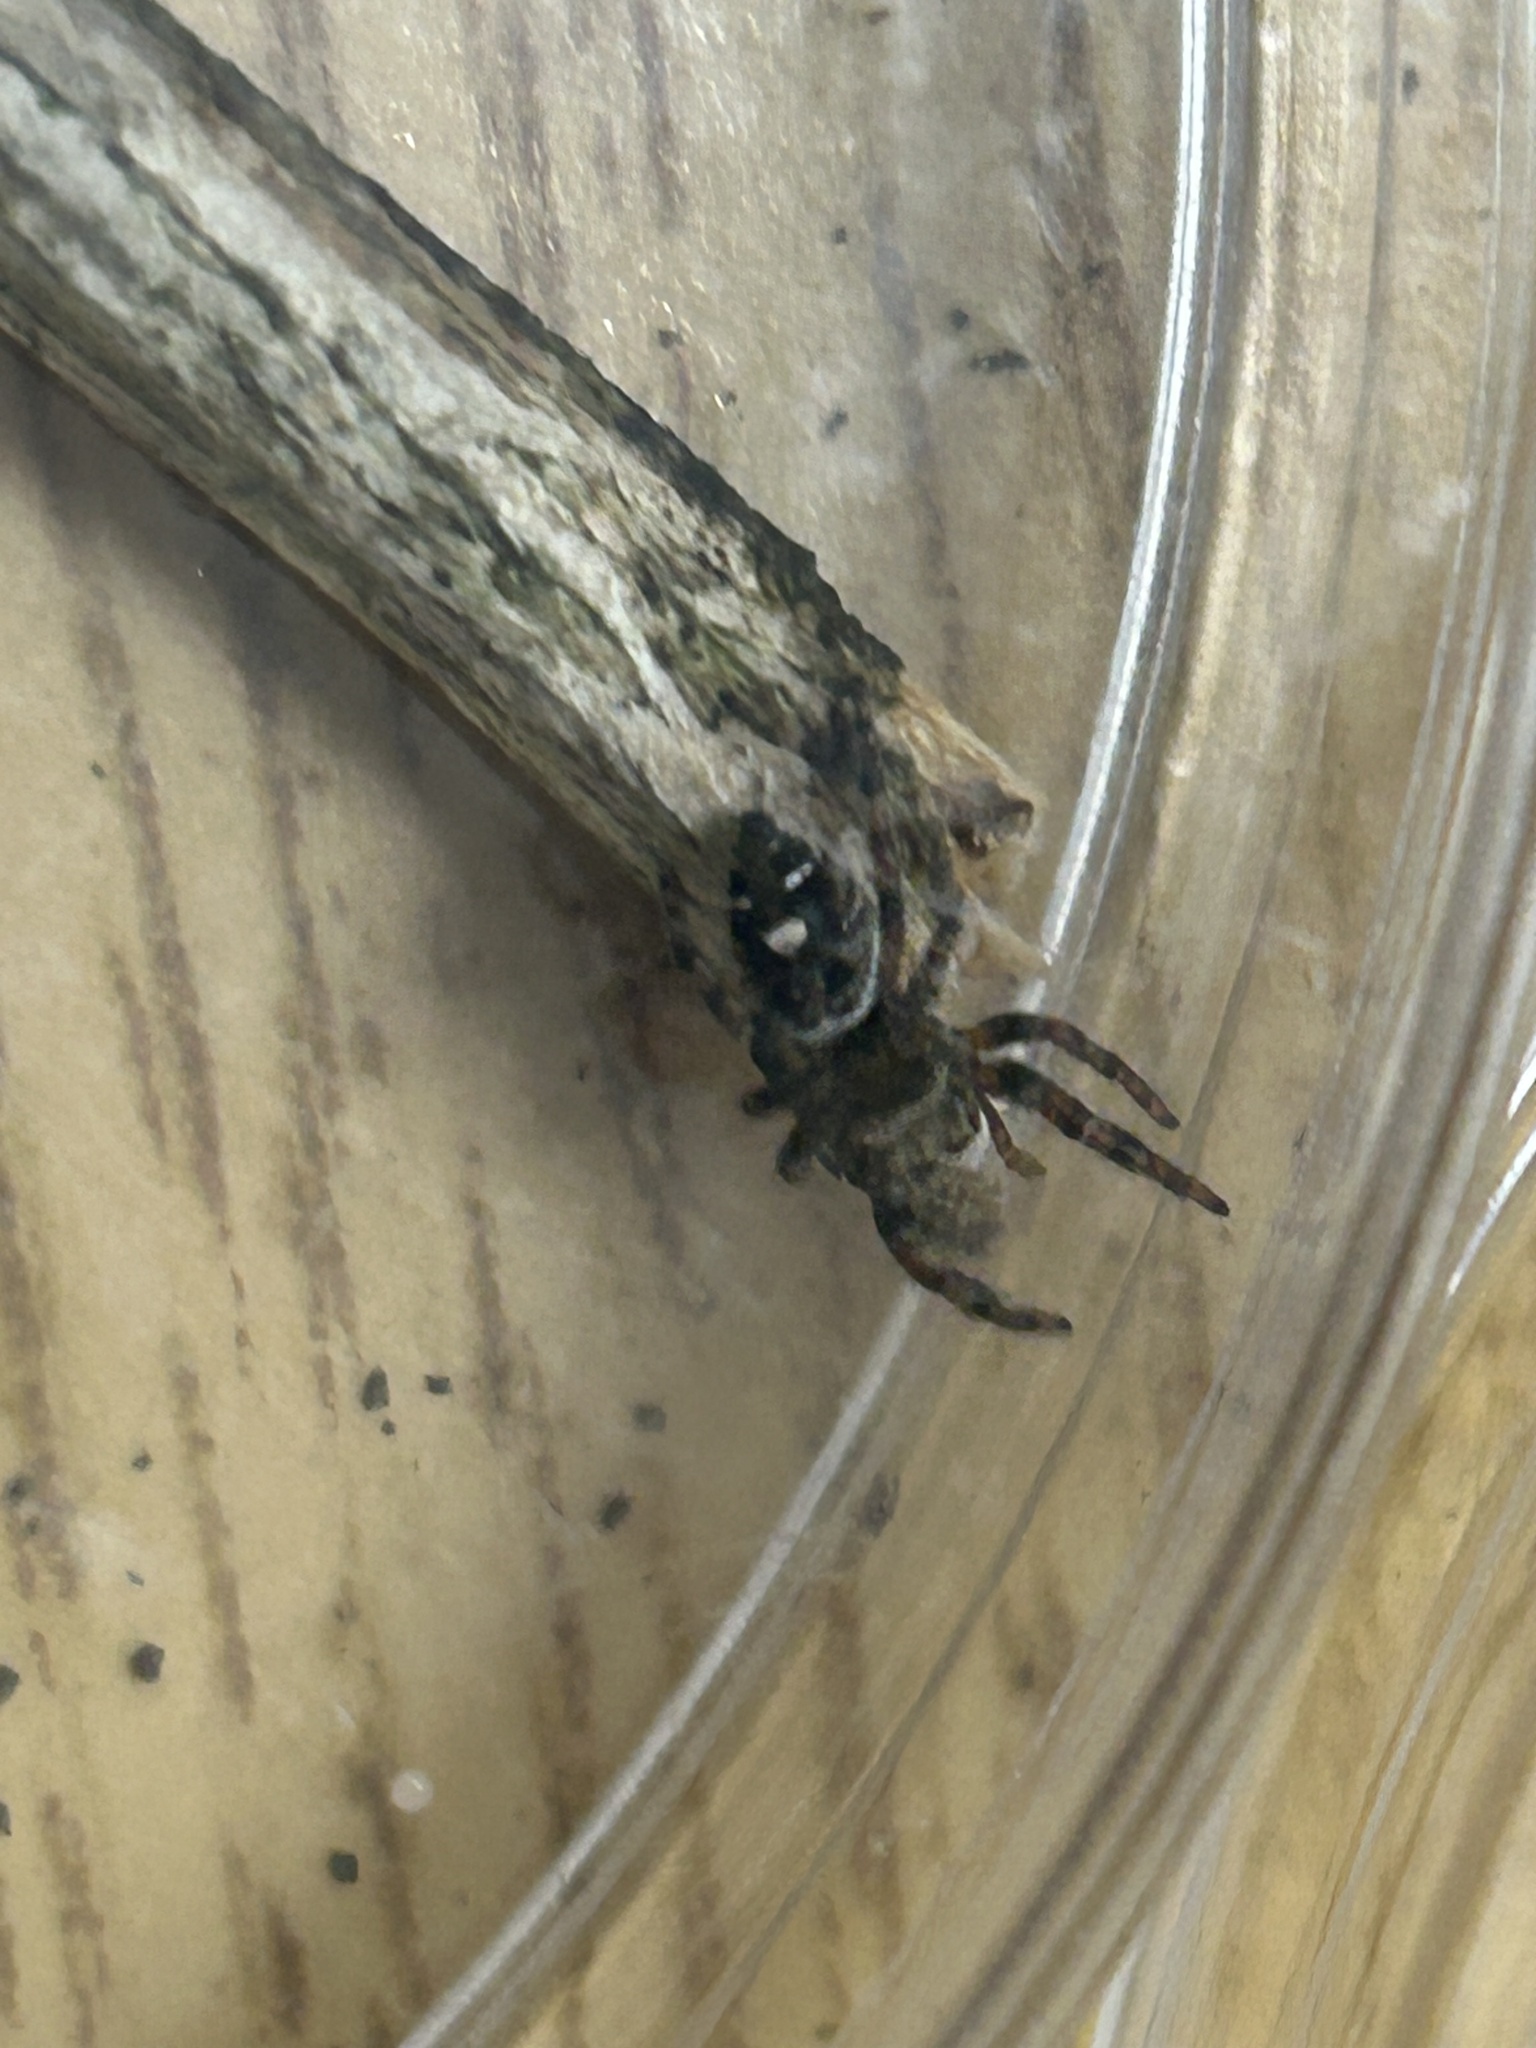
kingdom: Animalia
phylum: Arthropoda
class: Arachnida
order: Araneae
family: Salticidae
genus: Phidippus
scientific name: Phidippus audax
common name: Bold jumper
